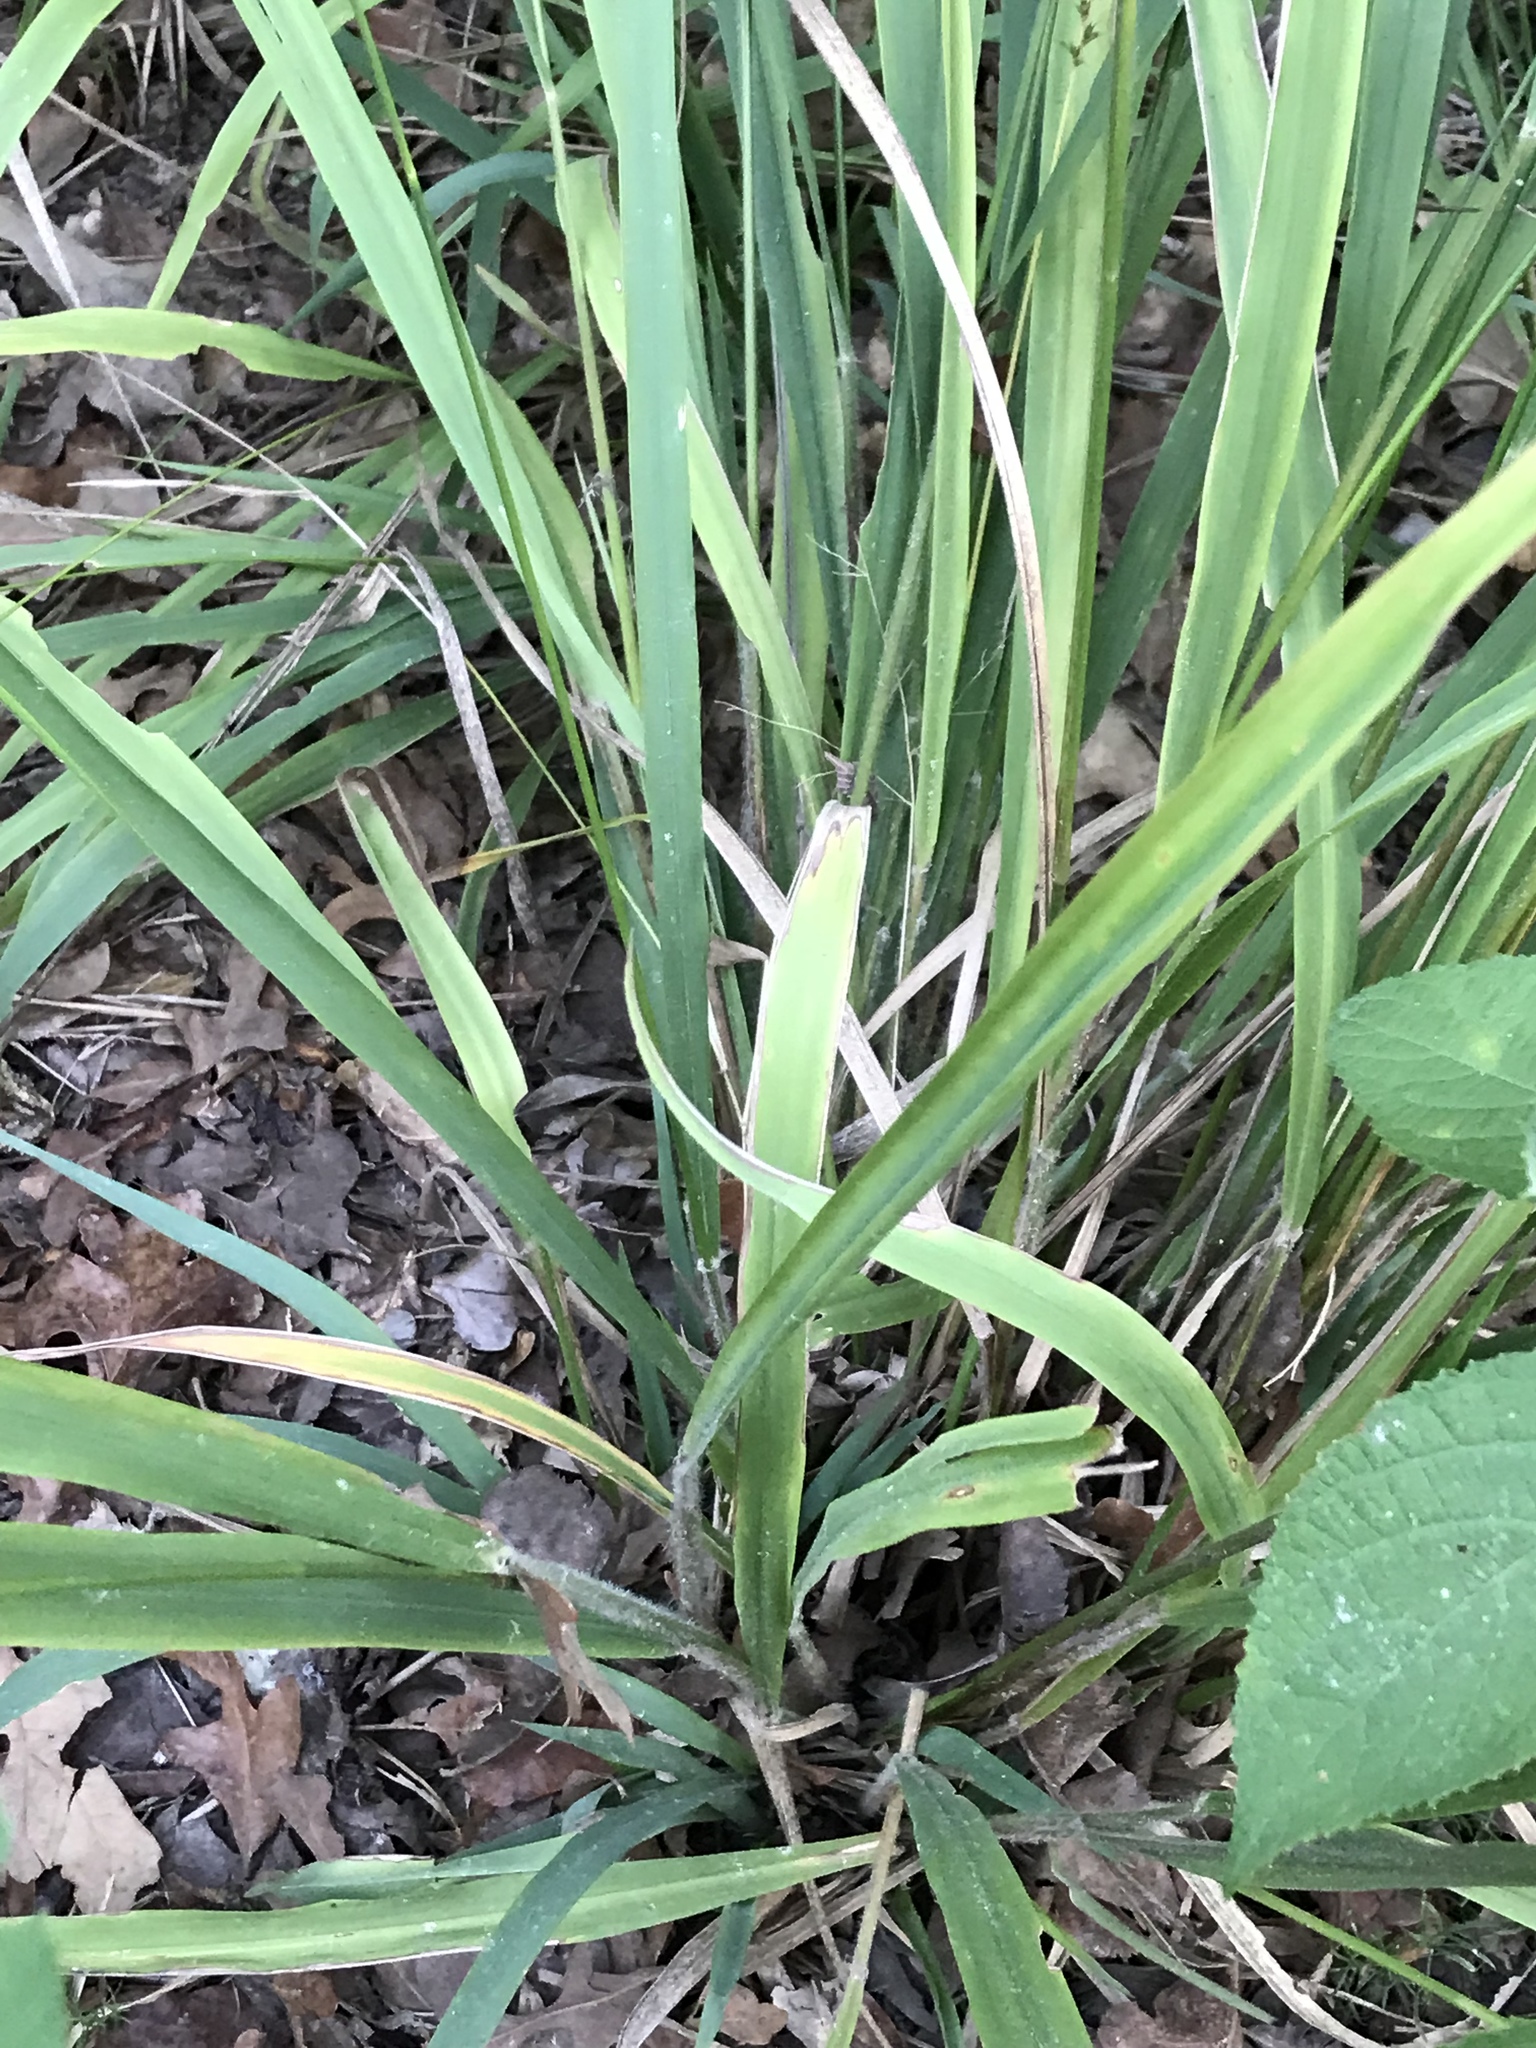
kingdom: Plantae
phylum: Tracheophyta
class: Liliopsida
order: Poales
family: Poaceae
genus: Chasmanthium
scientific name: Chasmanthium laxum
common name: Slender chasmanthium
